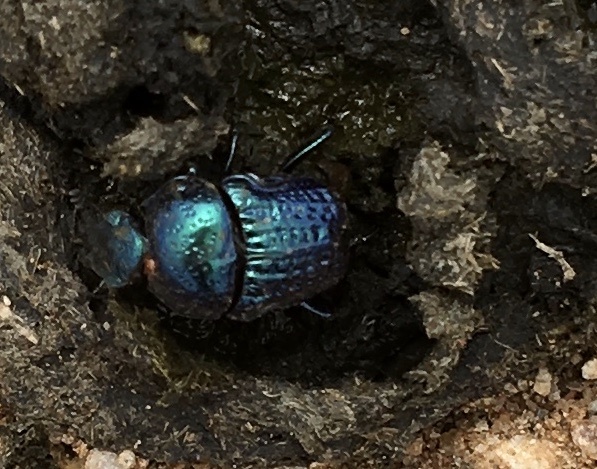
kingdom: Animalia
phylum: Arthropoda
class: Insecta
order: Coleoptera
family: Scarabaeidae
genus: Gymnopleurus
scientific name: Gymnopleurus cyaneus
